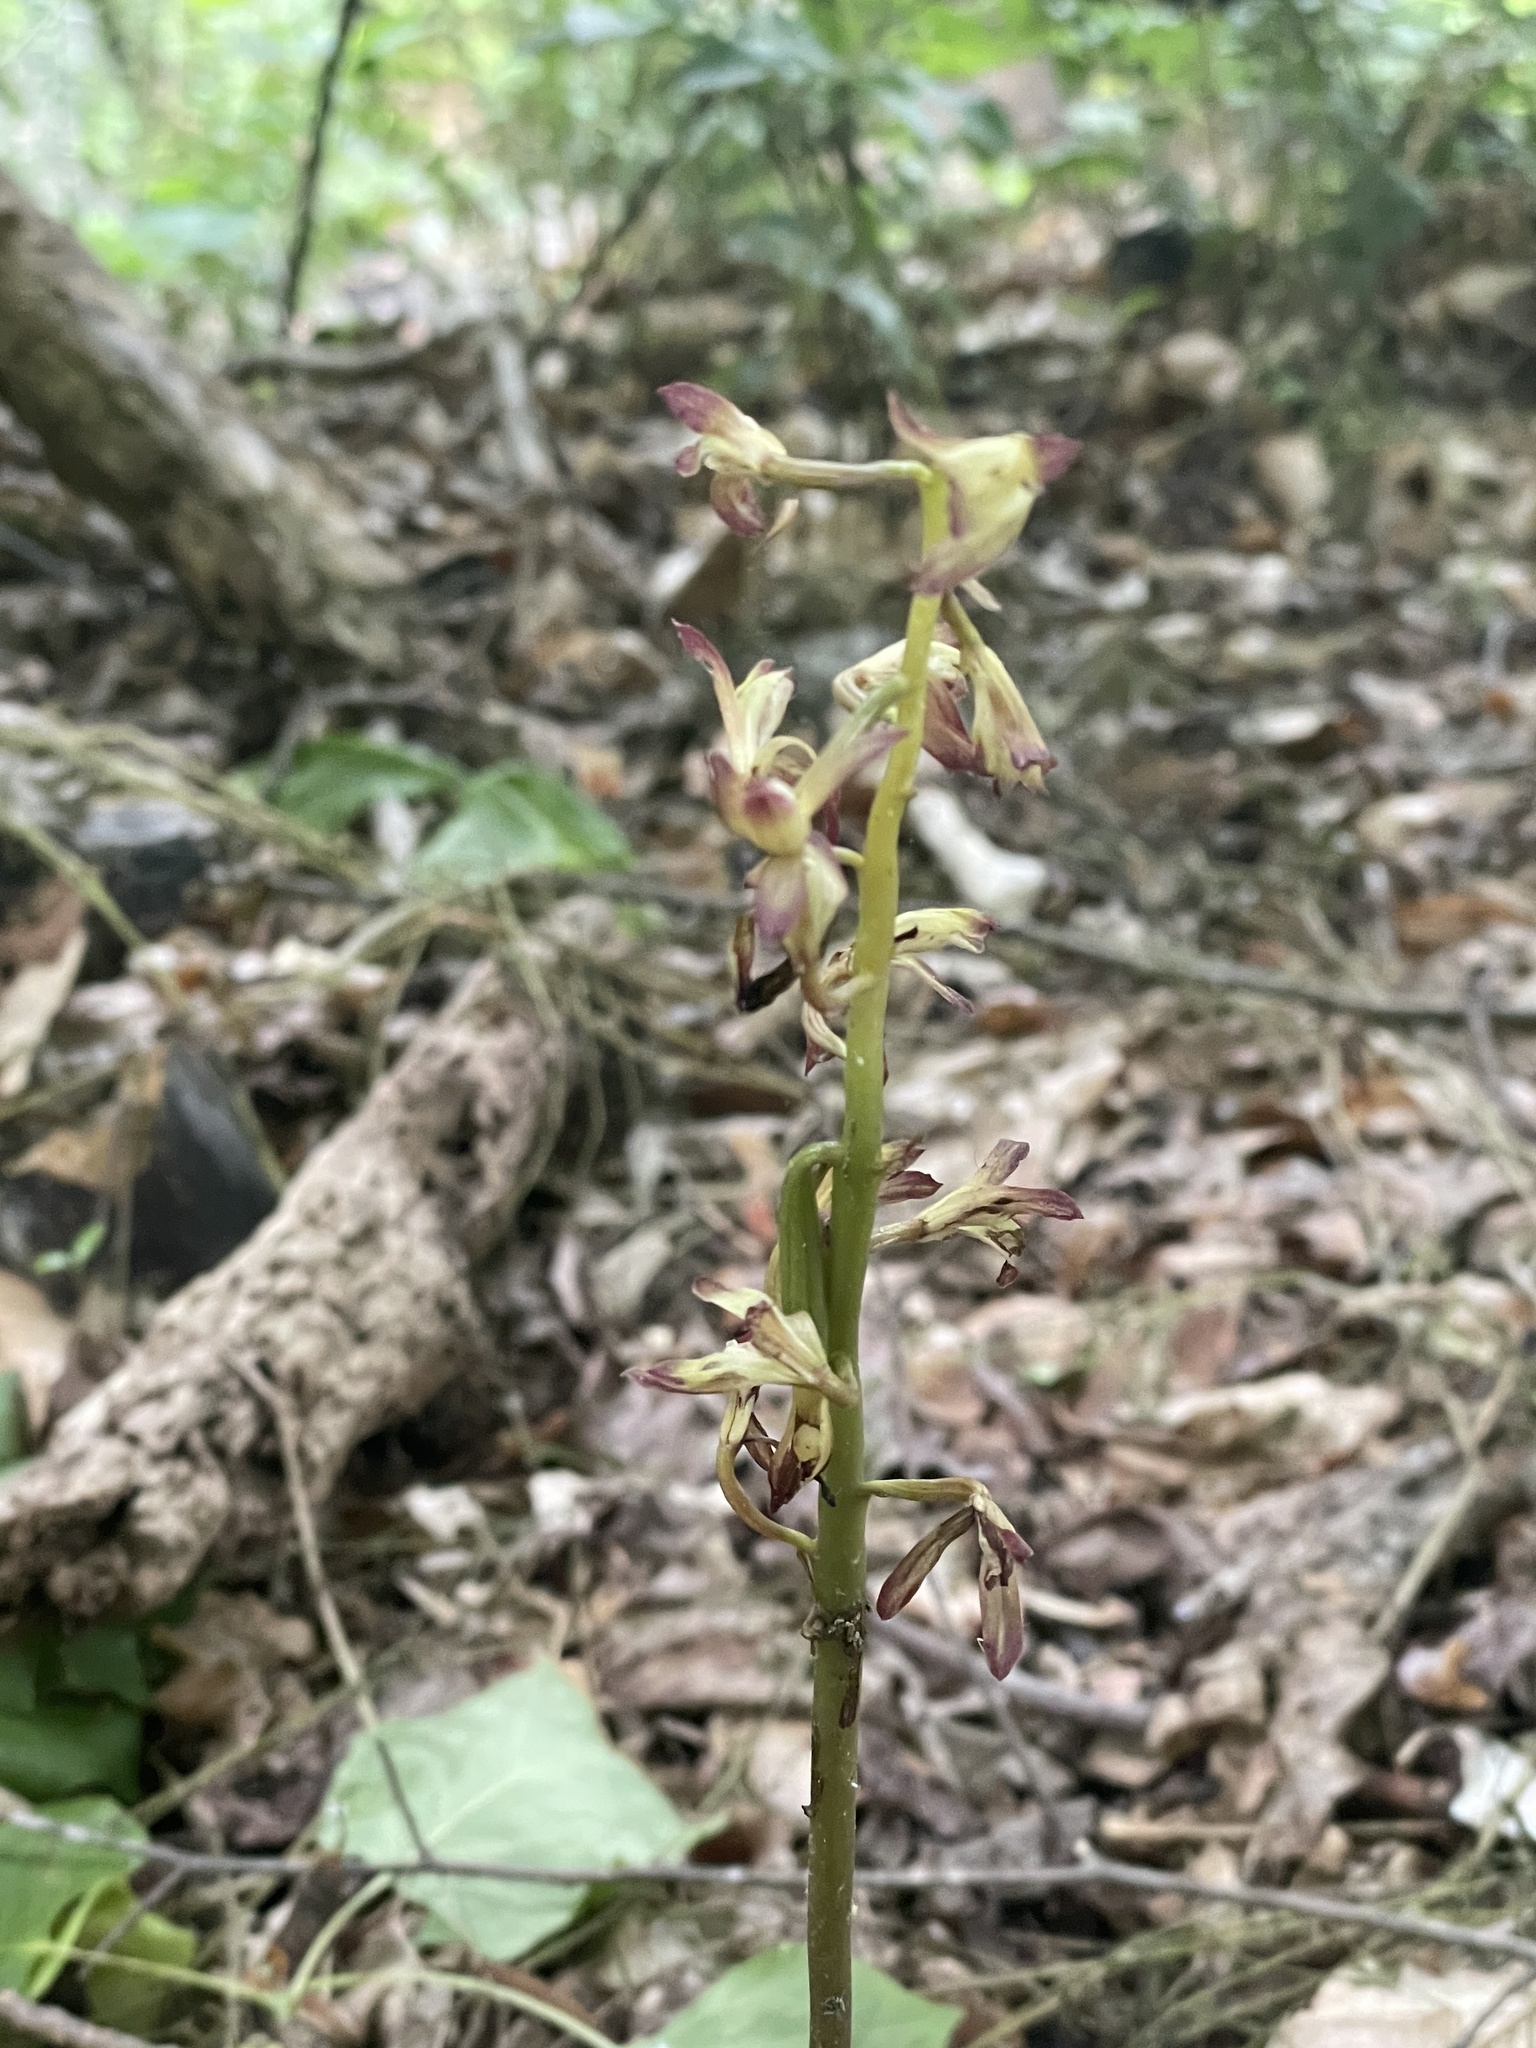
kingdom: Plantae
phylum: Tracheophyta
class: Liliopsida
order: Asparagales
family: Orchidaceae
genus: Aplectrum
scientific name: Aplectrum hyemale
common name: Adam-and-eve
